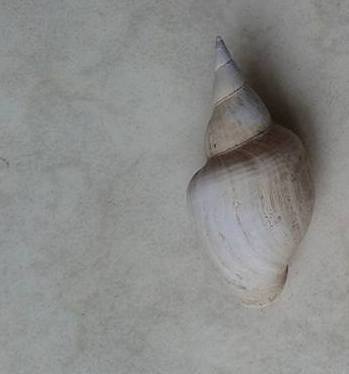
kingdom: Animalia
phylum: Mollusca
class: Gastropoda
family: Lymnaeidae
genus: Lymnaea
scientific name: Lymnaea stagnalis
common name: Great pond snail
